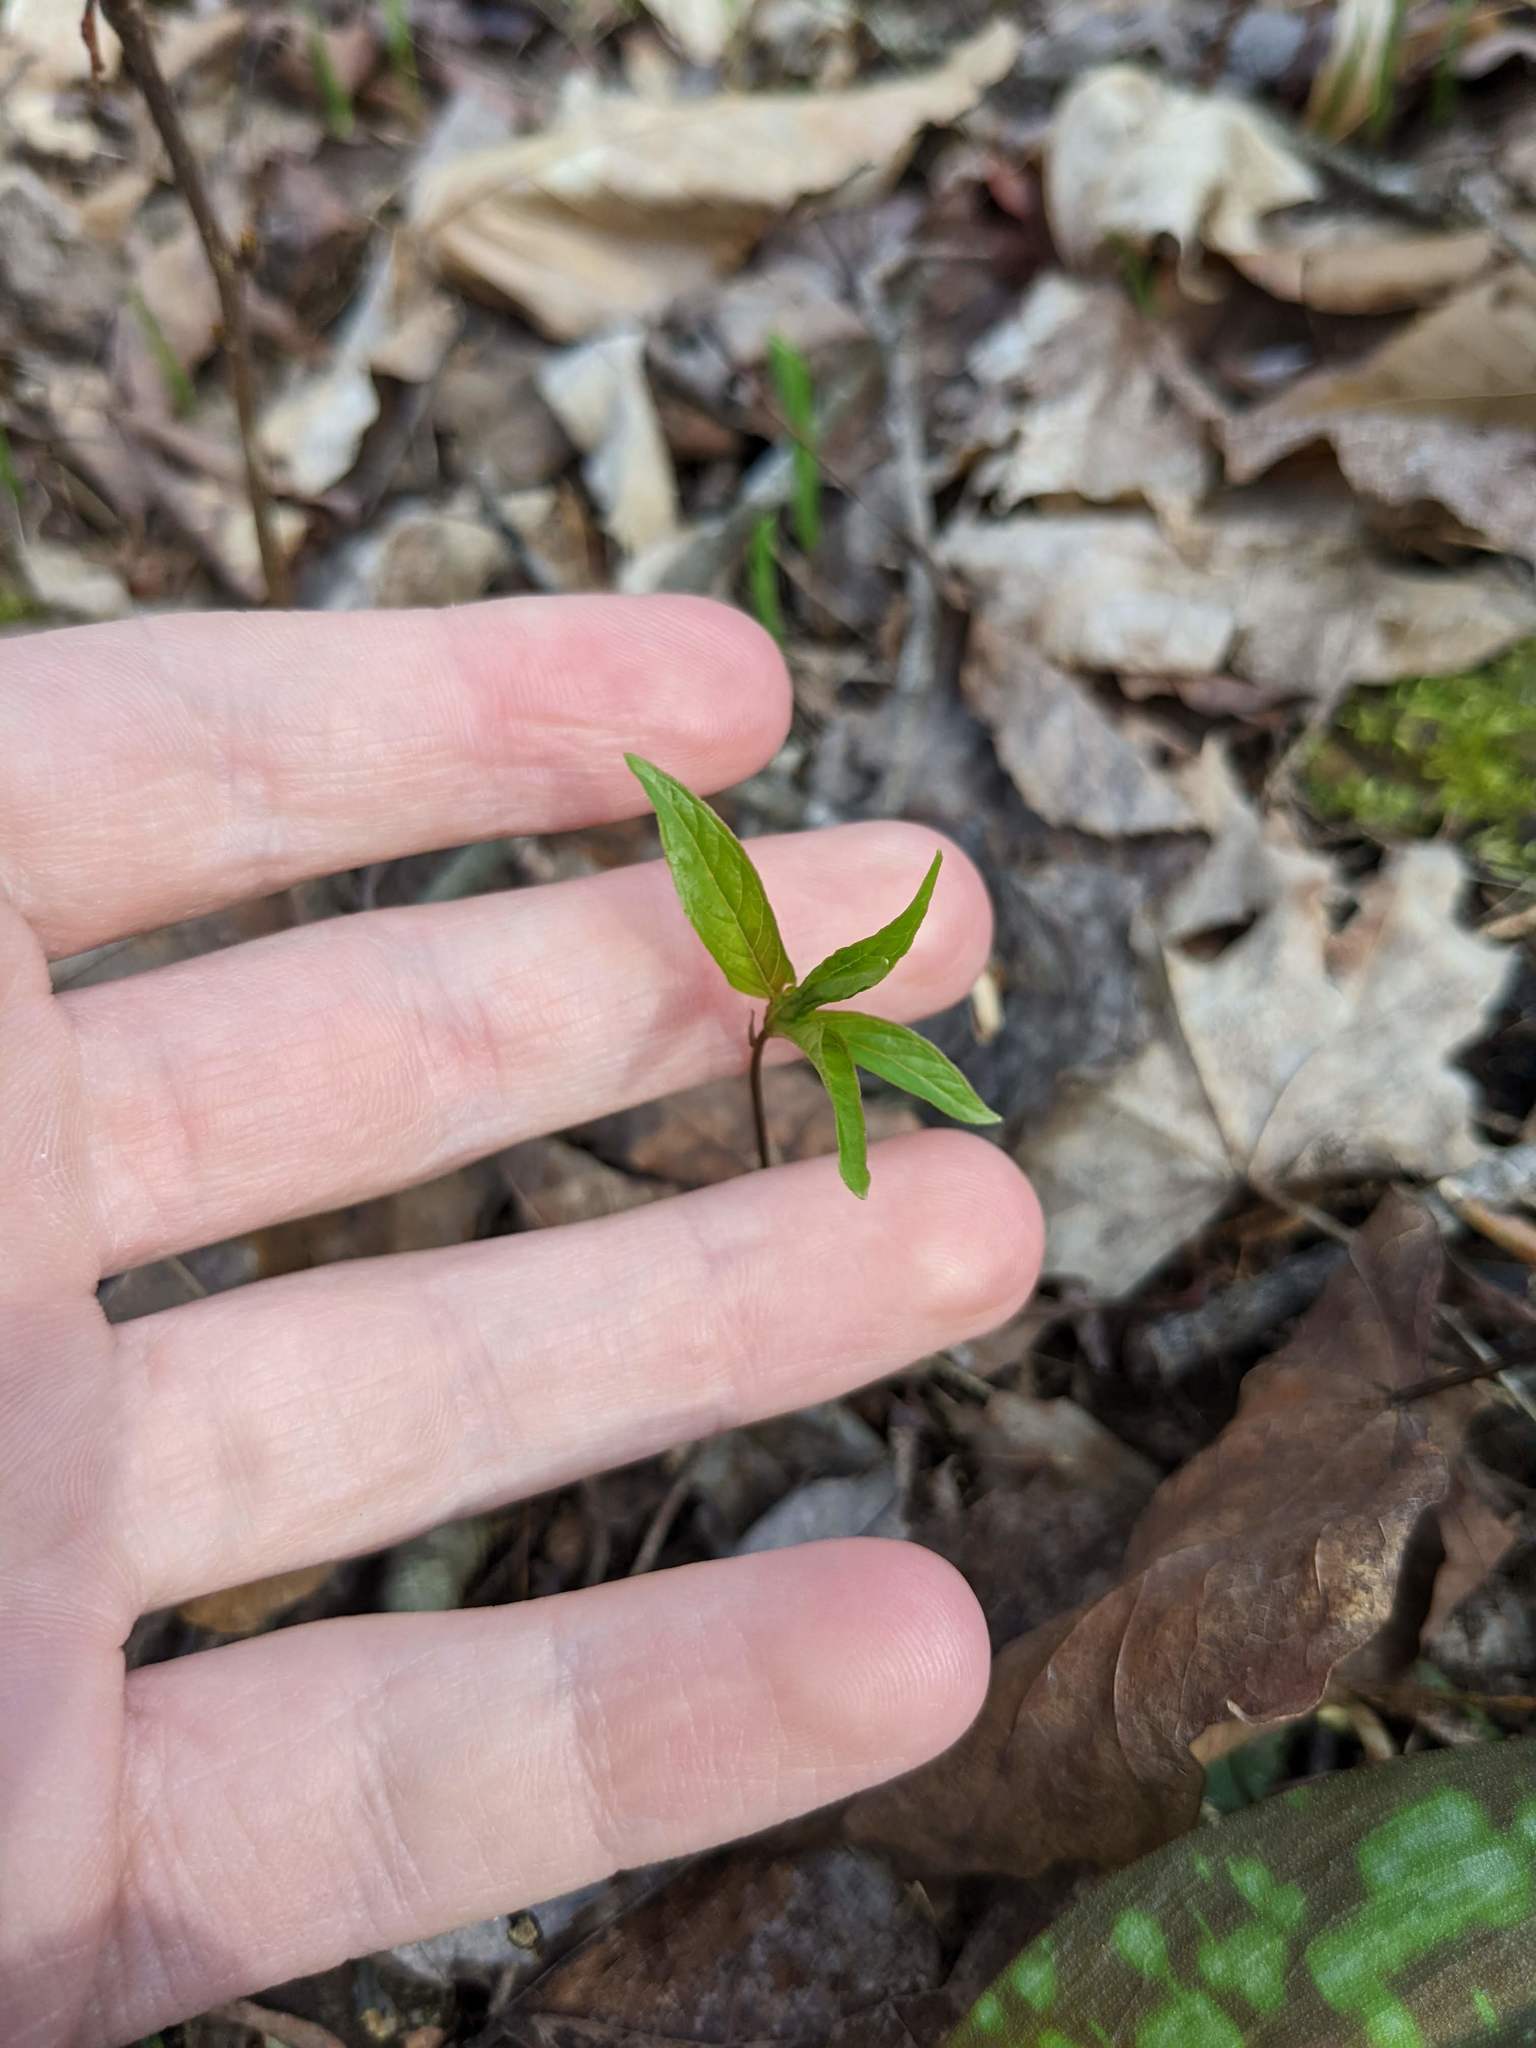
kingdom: Plantae
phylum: Tracheophyta
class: Magnoliopsida
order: Ericales
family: Primulaceae
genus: Lysimachia
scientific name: Lysimachia borealis
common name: American starflower
